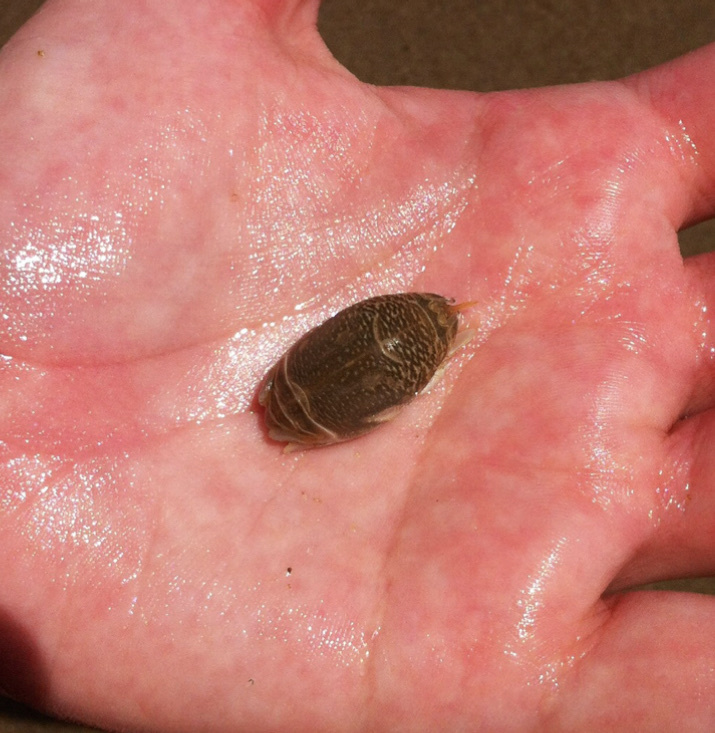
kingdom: Animalia
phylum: Arthropoda
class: Malacostraca
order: Decapoda
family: Hippidae
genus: Emerita
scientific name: Emerita talpoida
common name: Atlantic sand crab
